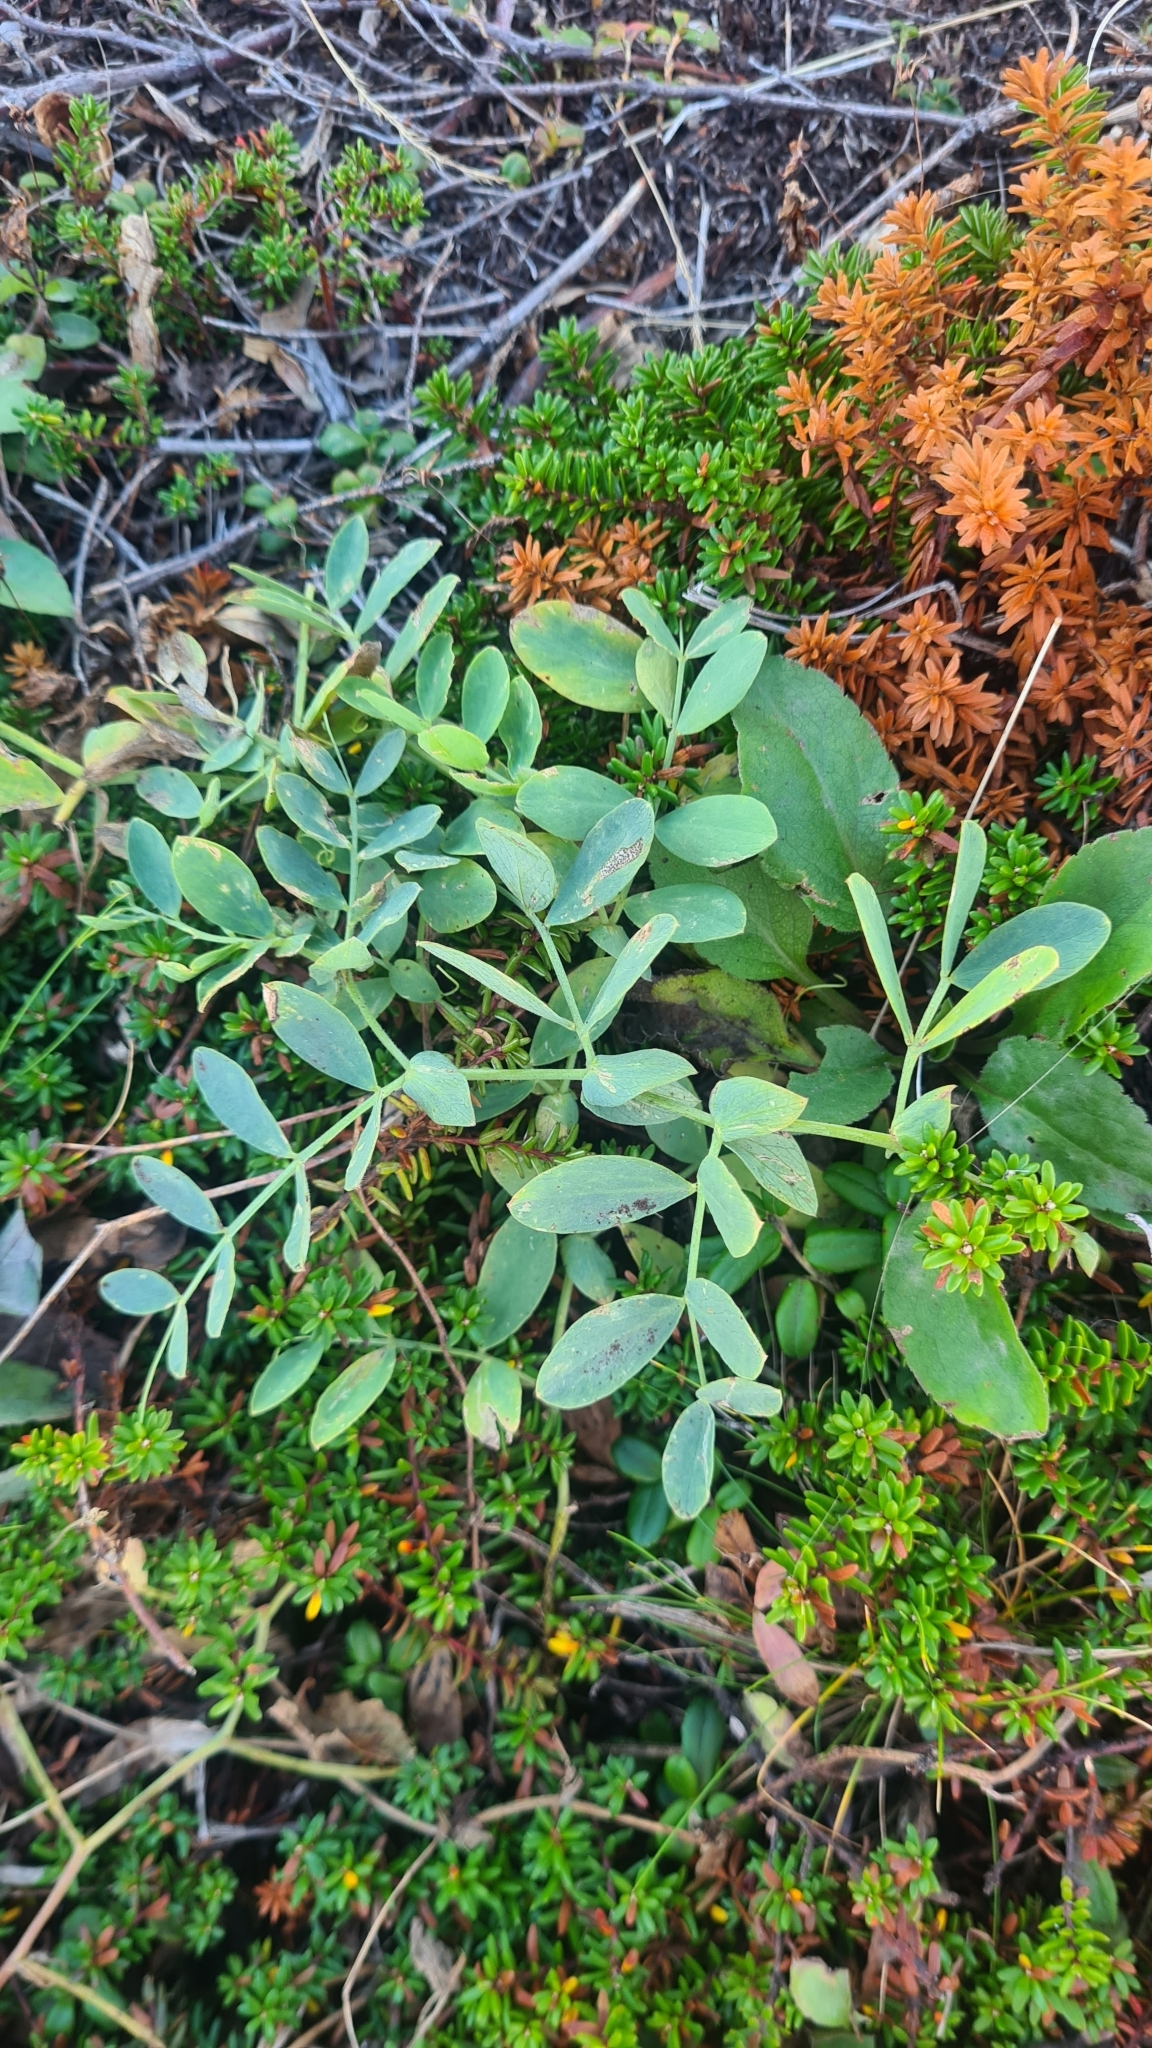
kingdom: Plantae
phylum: Tracheophyta
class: Magnoliopsida
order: Fabales
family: Fabaceae
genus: Lathyrus
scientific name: Lathyrus japonicus
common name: Sea pea
